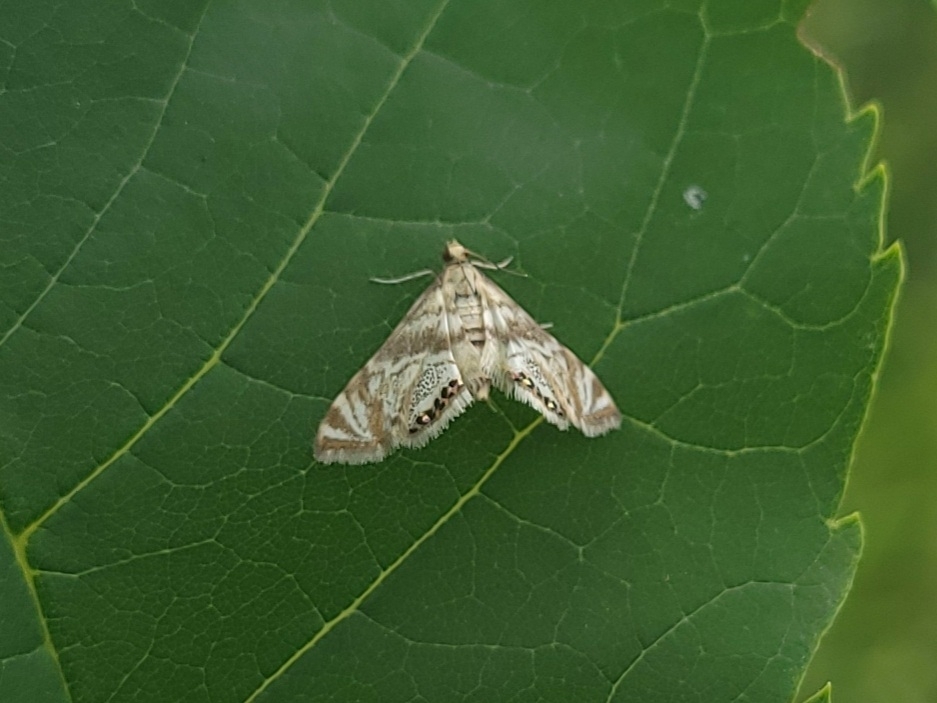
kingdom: Animalia
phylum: Arthropoda
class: Insecta
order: Lepidoptera
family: Crambidae
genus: Petrophila
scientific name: Petrophila canadensis
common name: Canadian petrophila
